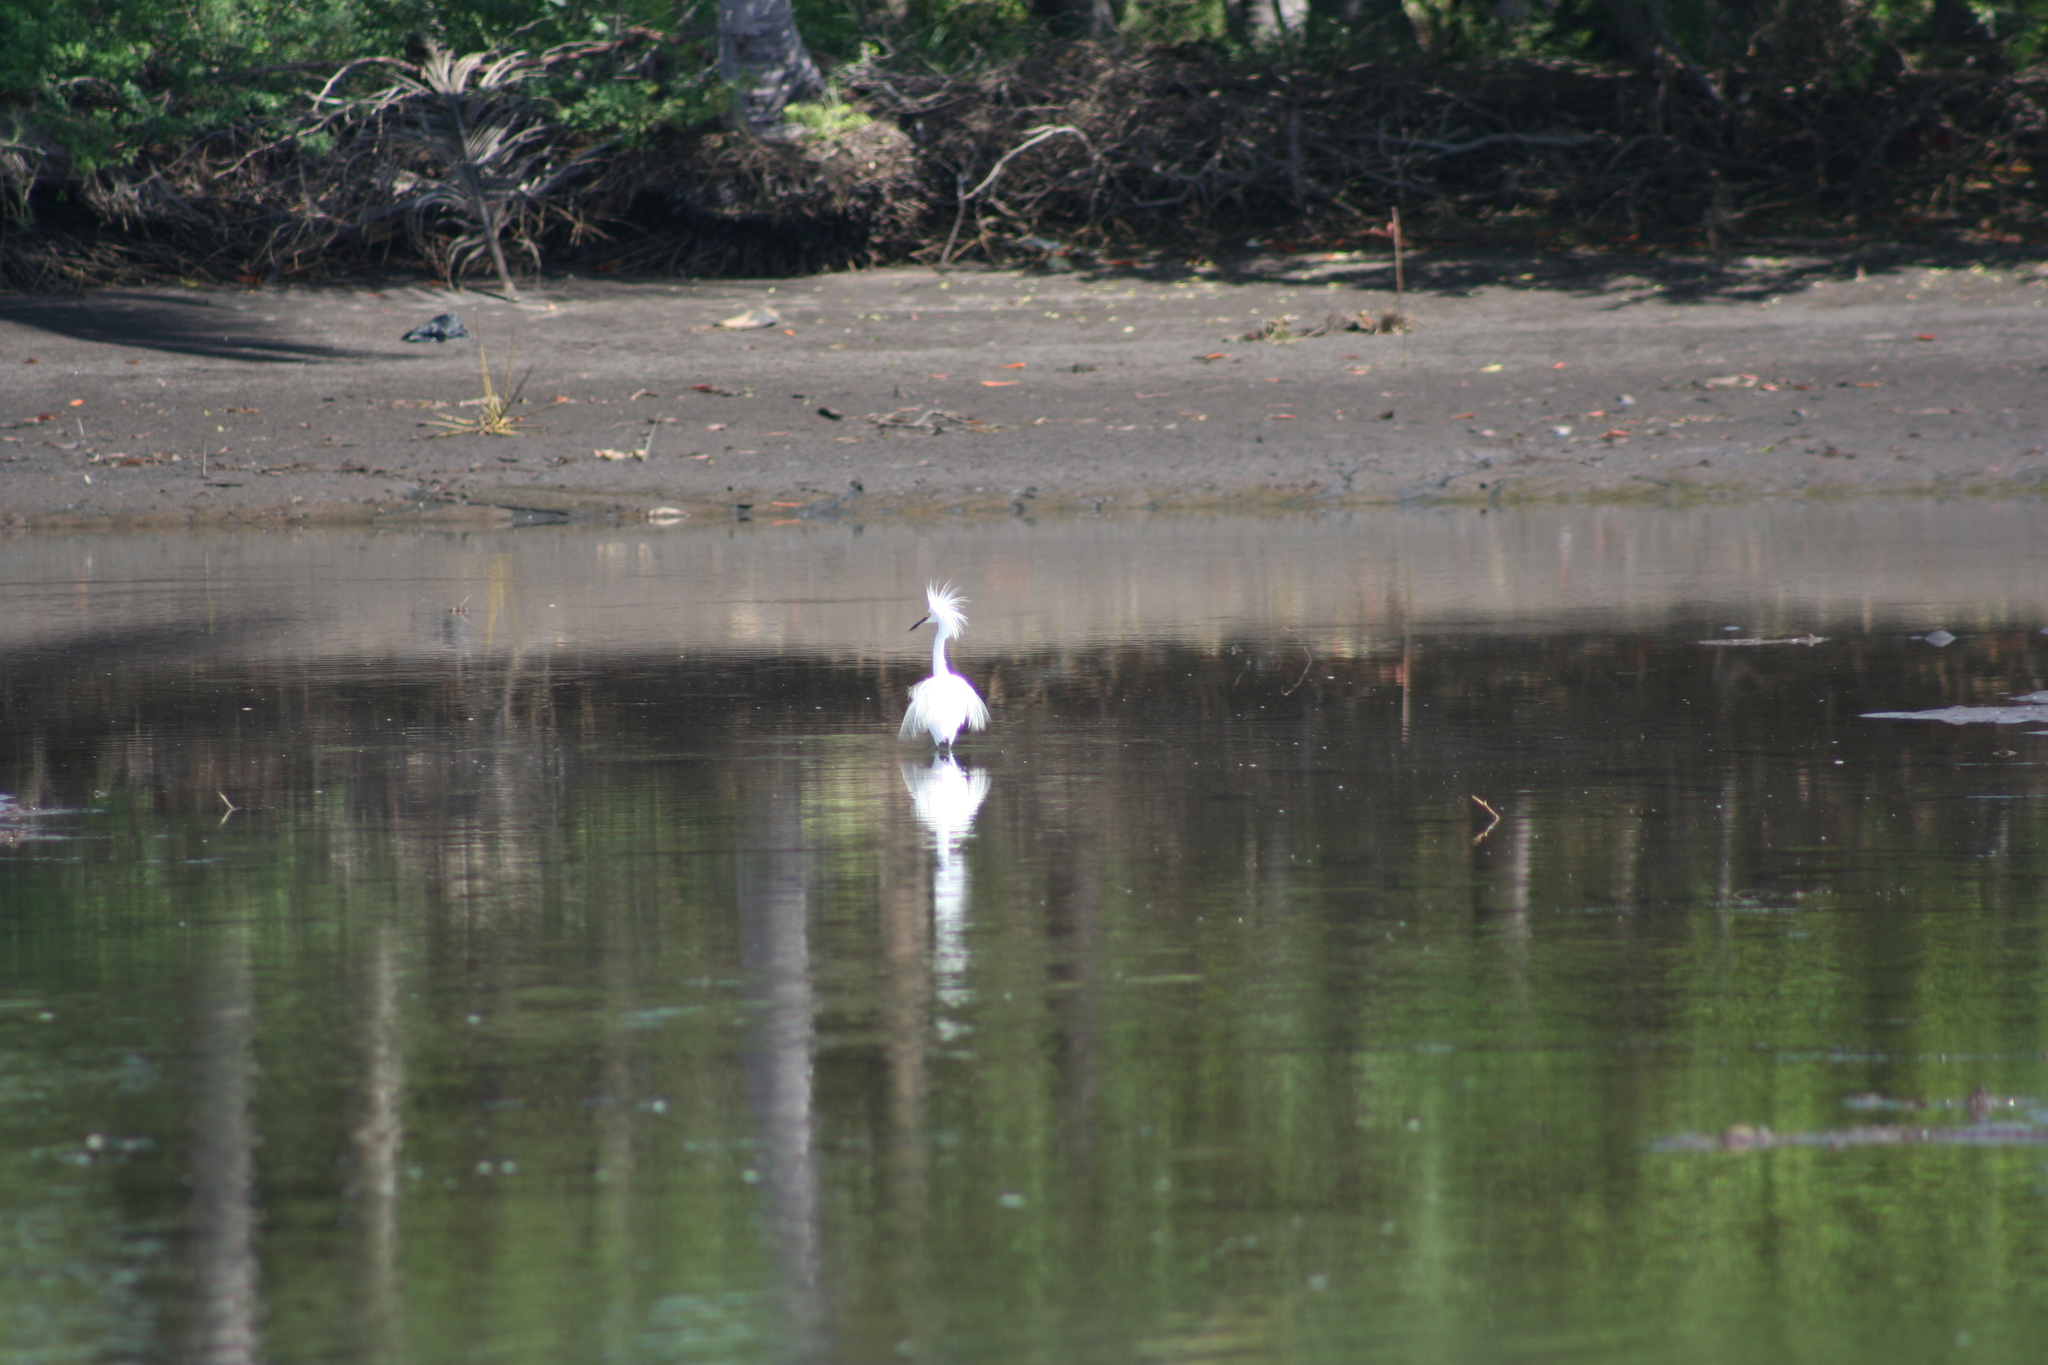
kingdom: Animalia
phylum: Chordata
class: Aves
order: Pelecaniformes
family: Ardeidae
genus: Egretta
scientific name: Egretta thula
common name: Snowy egret
